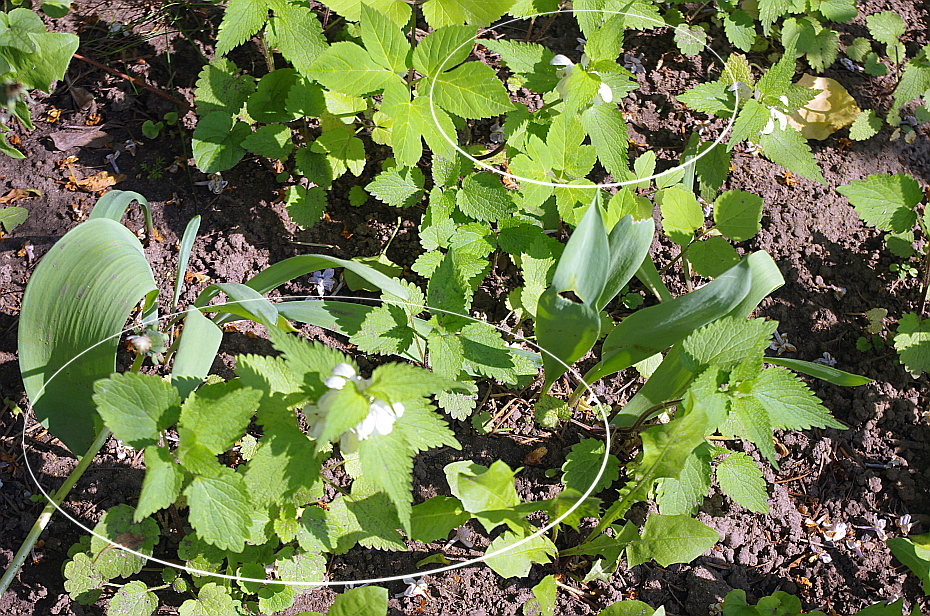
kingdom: Plantae
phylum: Tracheophyta
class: Magnoliopsida
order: Lamiales
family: Lamiaceae
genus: Lamium
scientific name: Lamium album
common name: White dead-nettle
